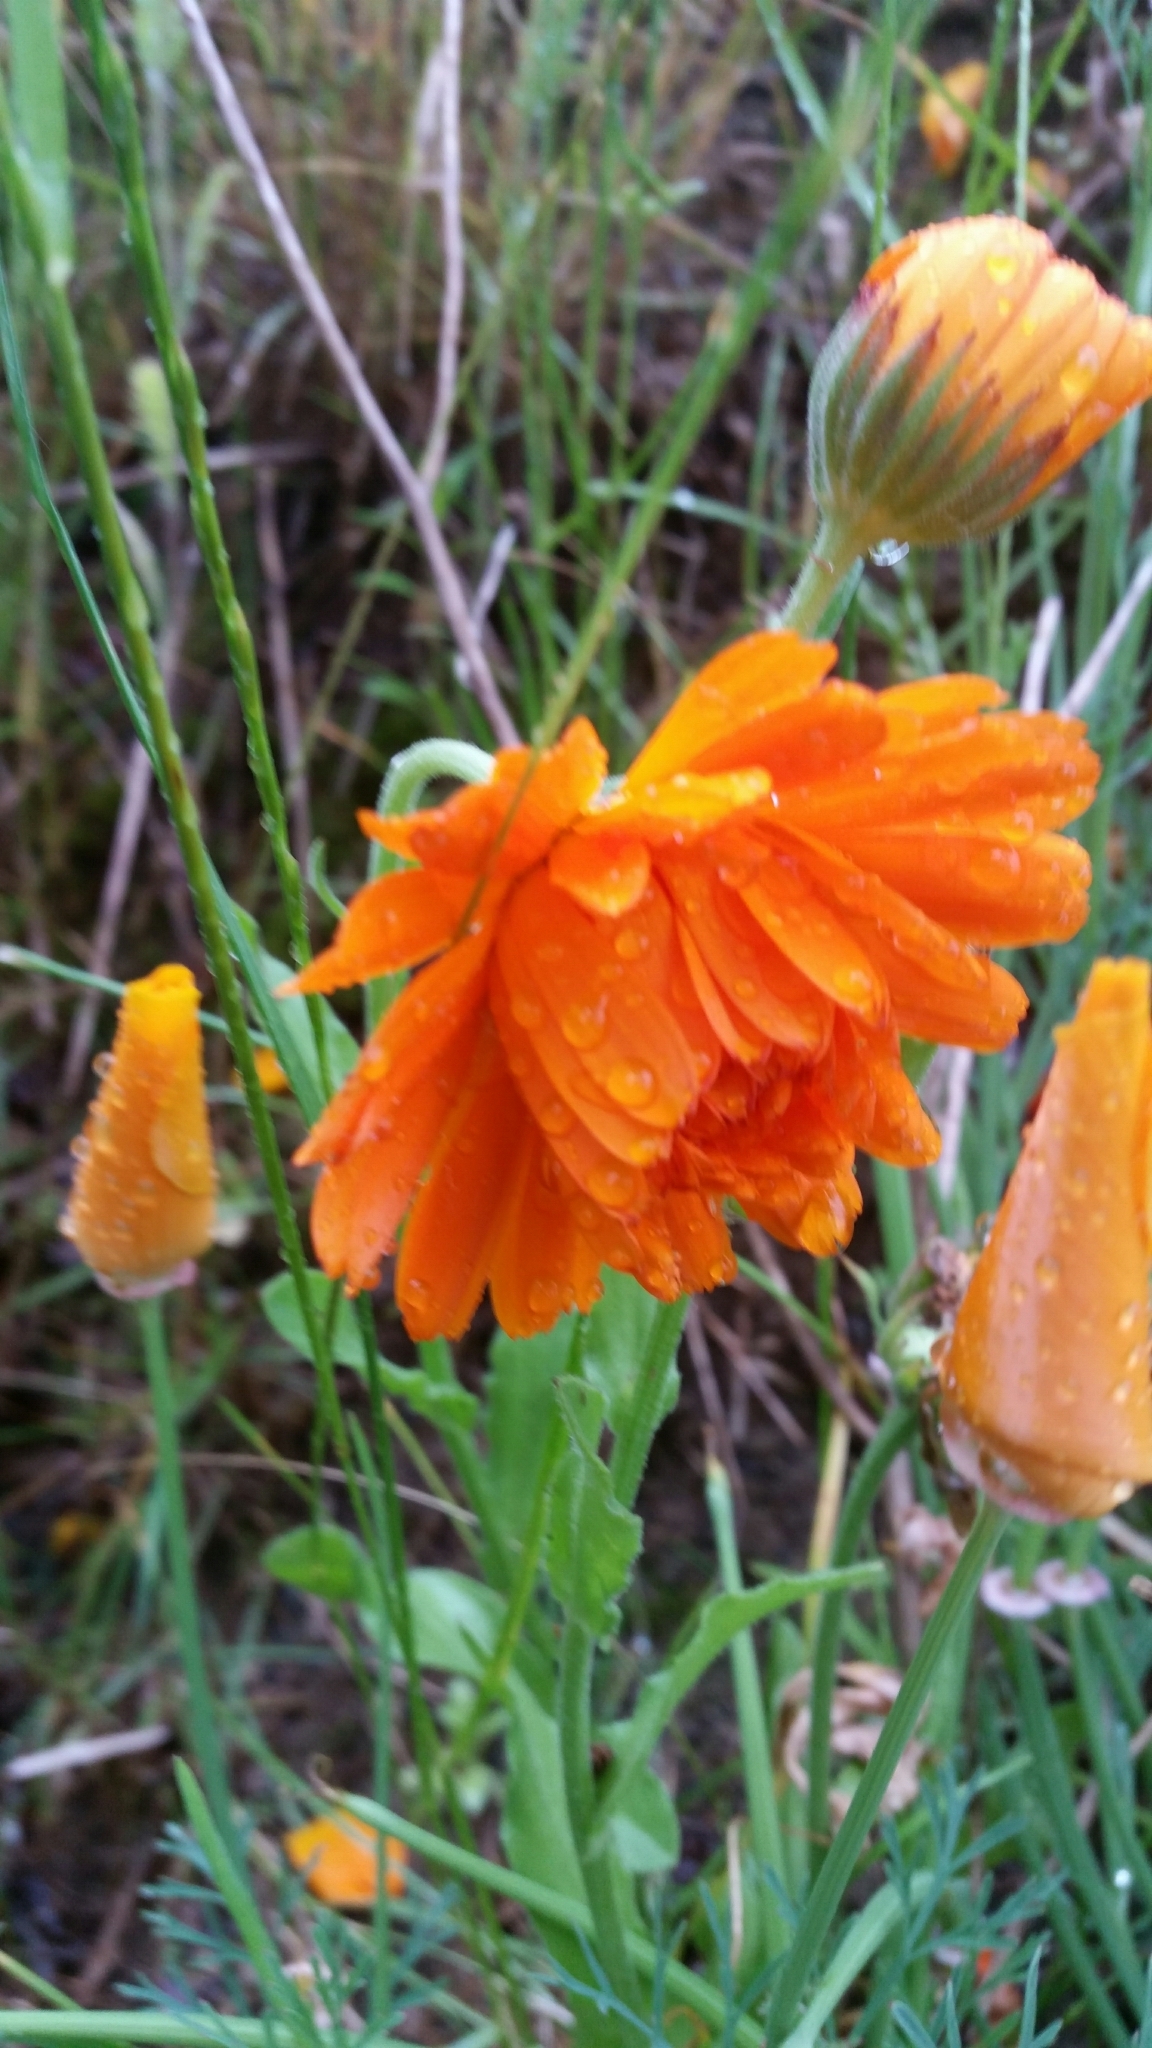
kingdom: Plantae
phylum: Tracheophyta
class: Magnoliopsida
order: Asterales
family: Asteraceae
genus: Calendula
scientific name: Calendula officinalis
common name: Pot marigold
